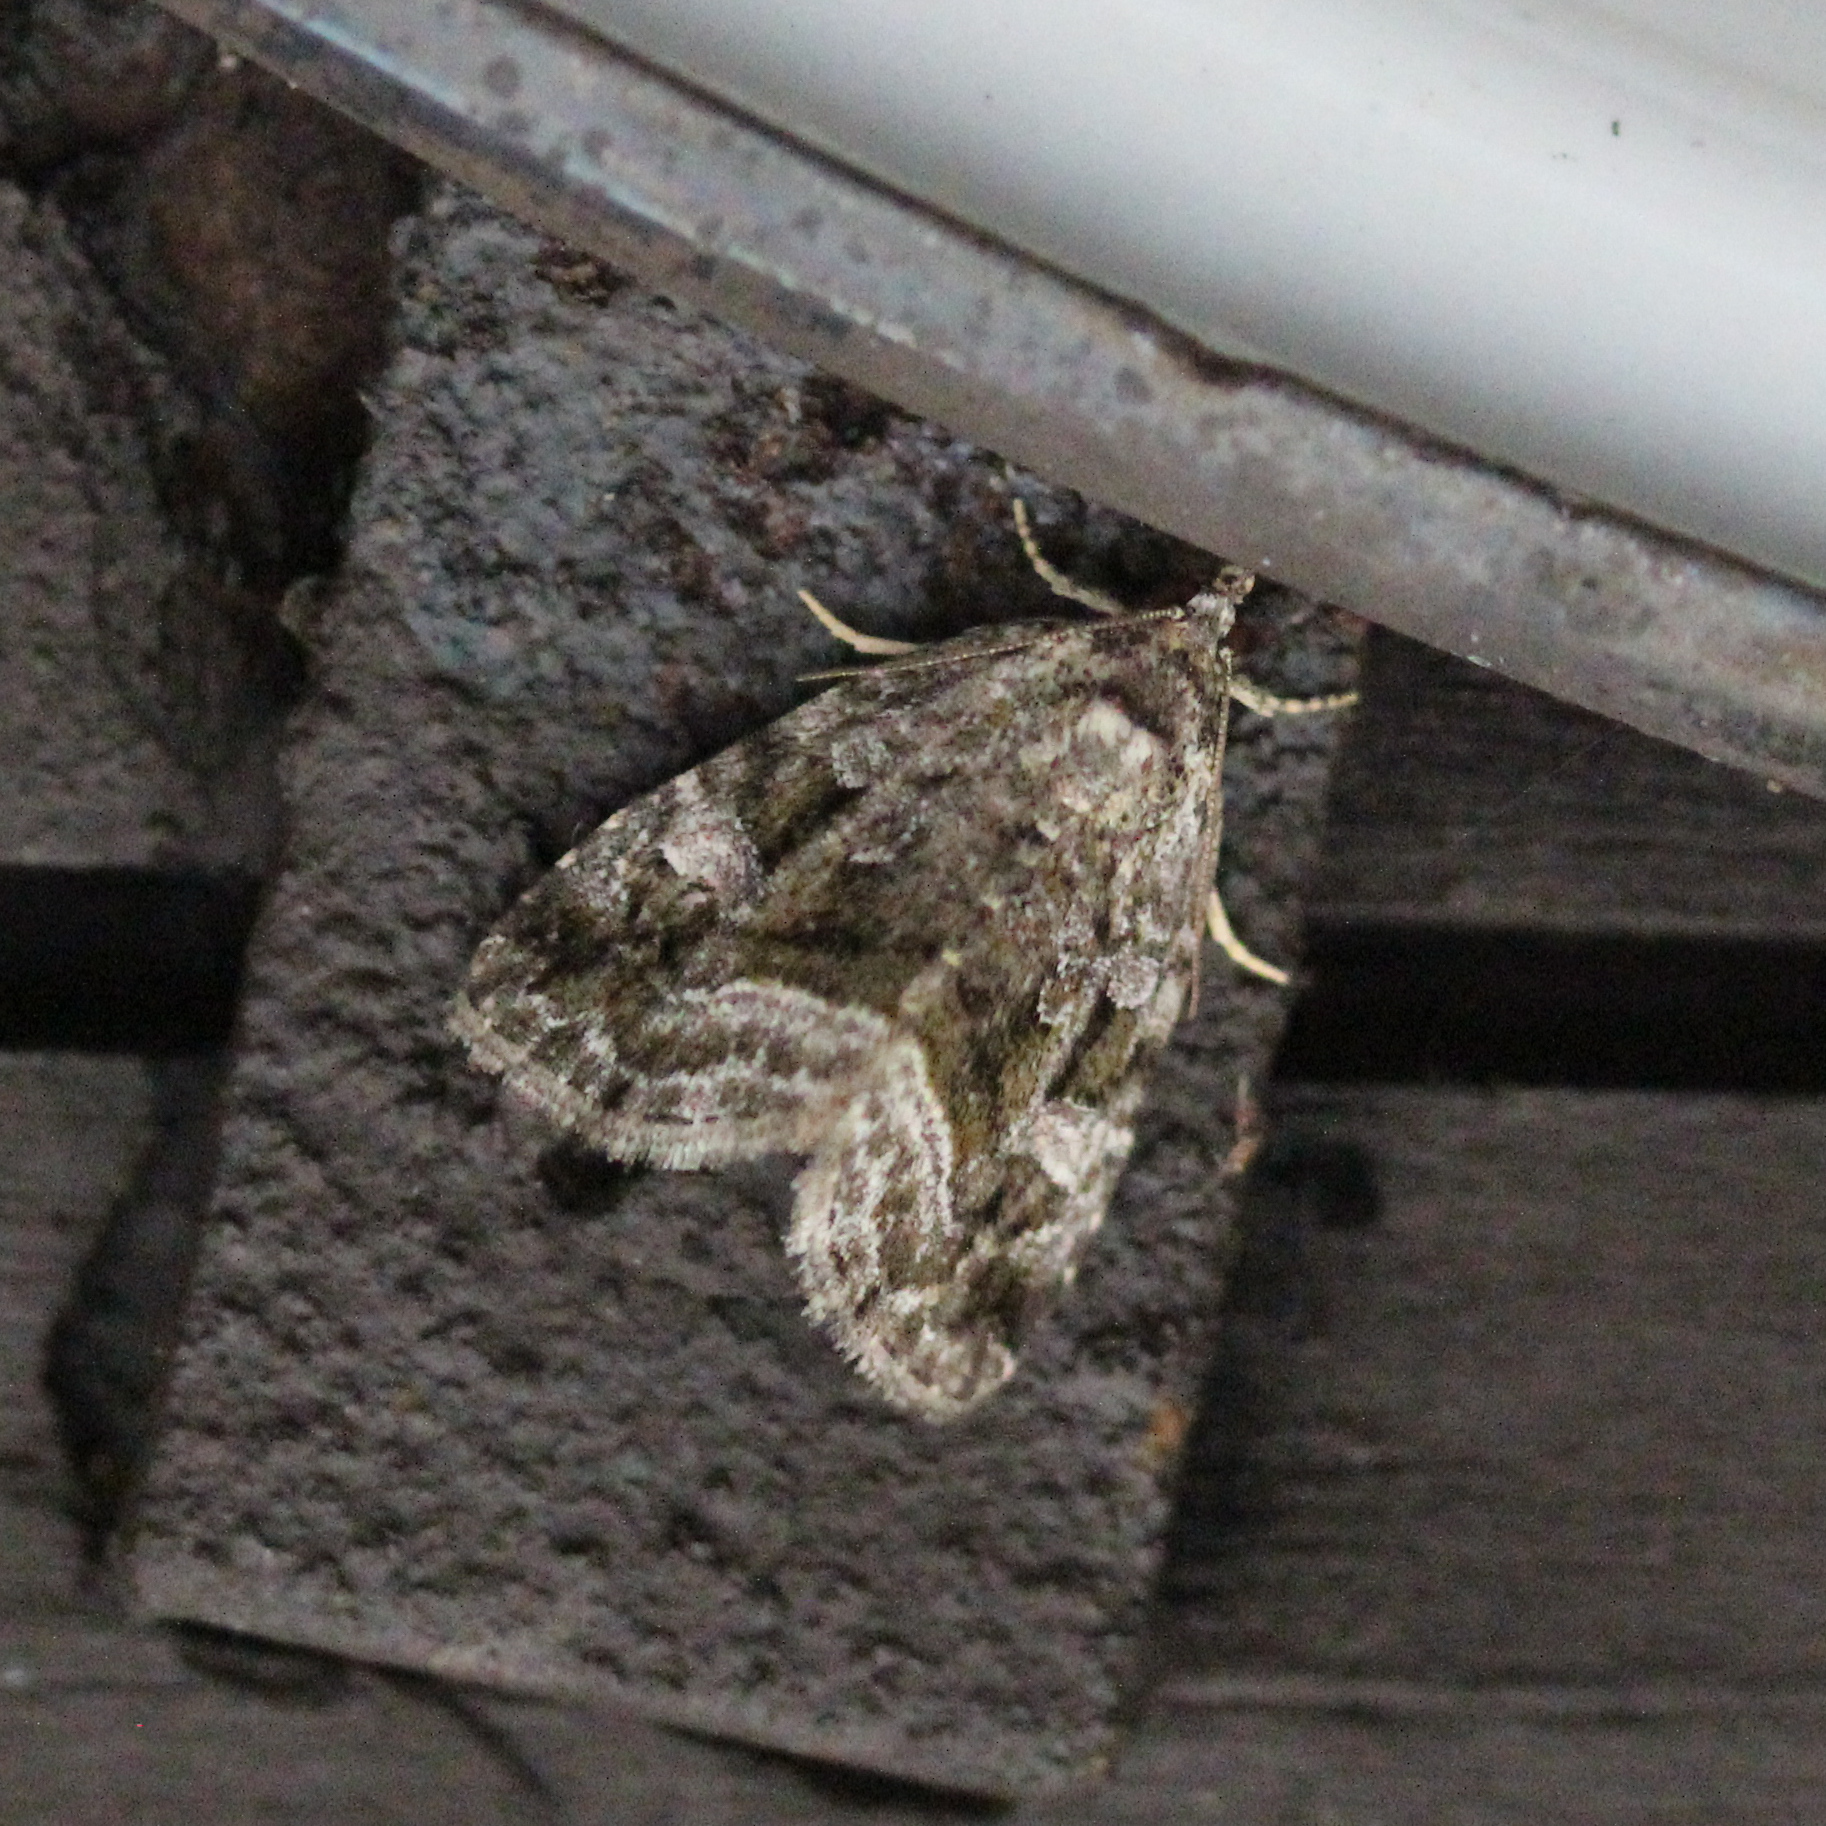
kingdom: Animalia
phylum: Arthropoda
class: Insecta
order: Lepidoptera
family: Noctuidae
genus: Protodeltote
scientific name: Protodeltote muscosula
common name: Large mossy glyph
